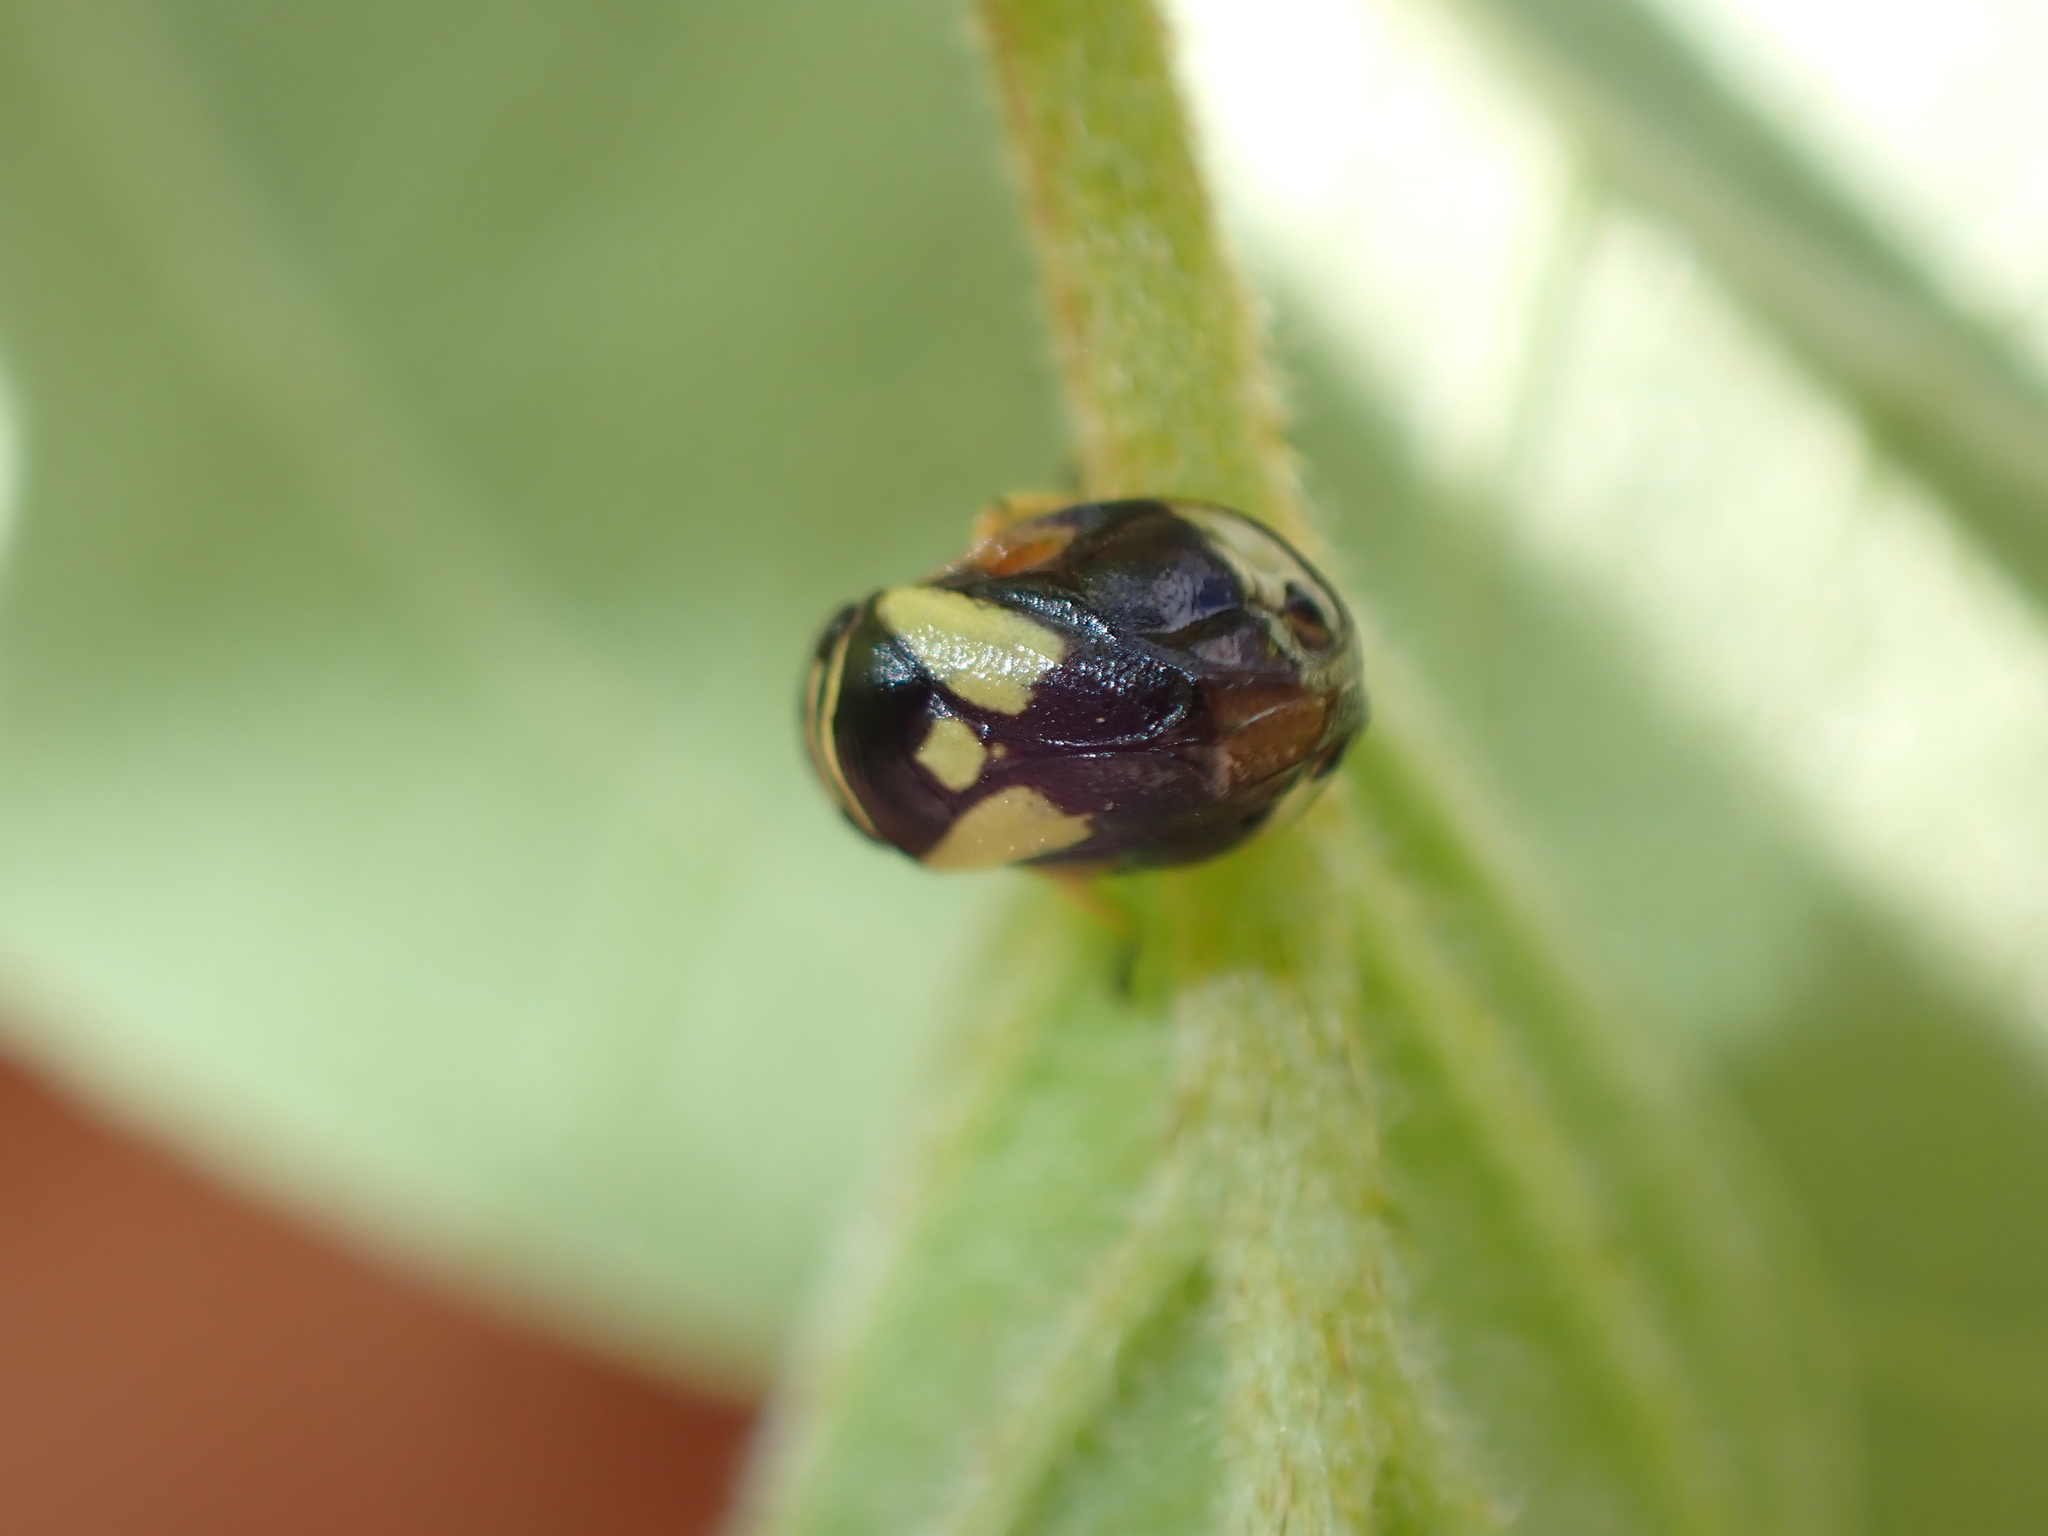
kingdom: Animalia
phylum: Arthropoda
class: Insecta
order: Hemiptera
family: Clastopteridae
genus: Clastoptera
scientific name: Clastoptera proteus
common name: Dogwood spittlebug
